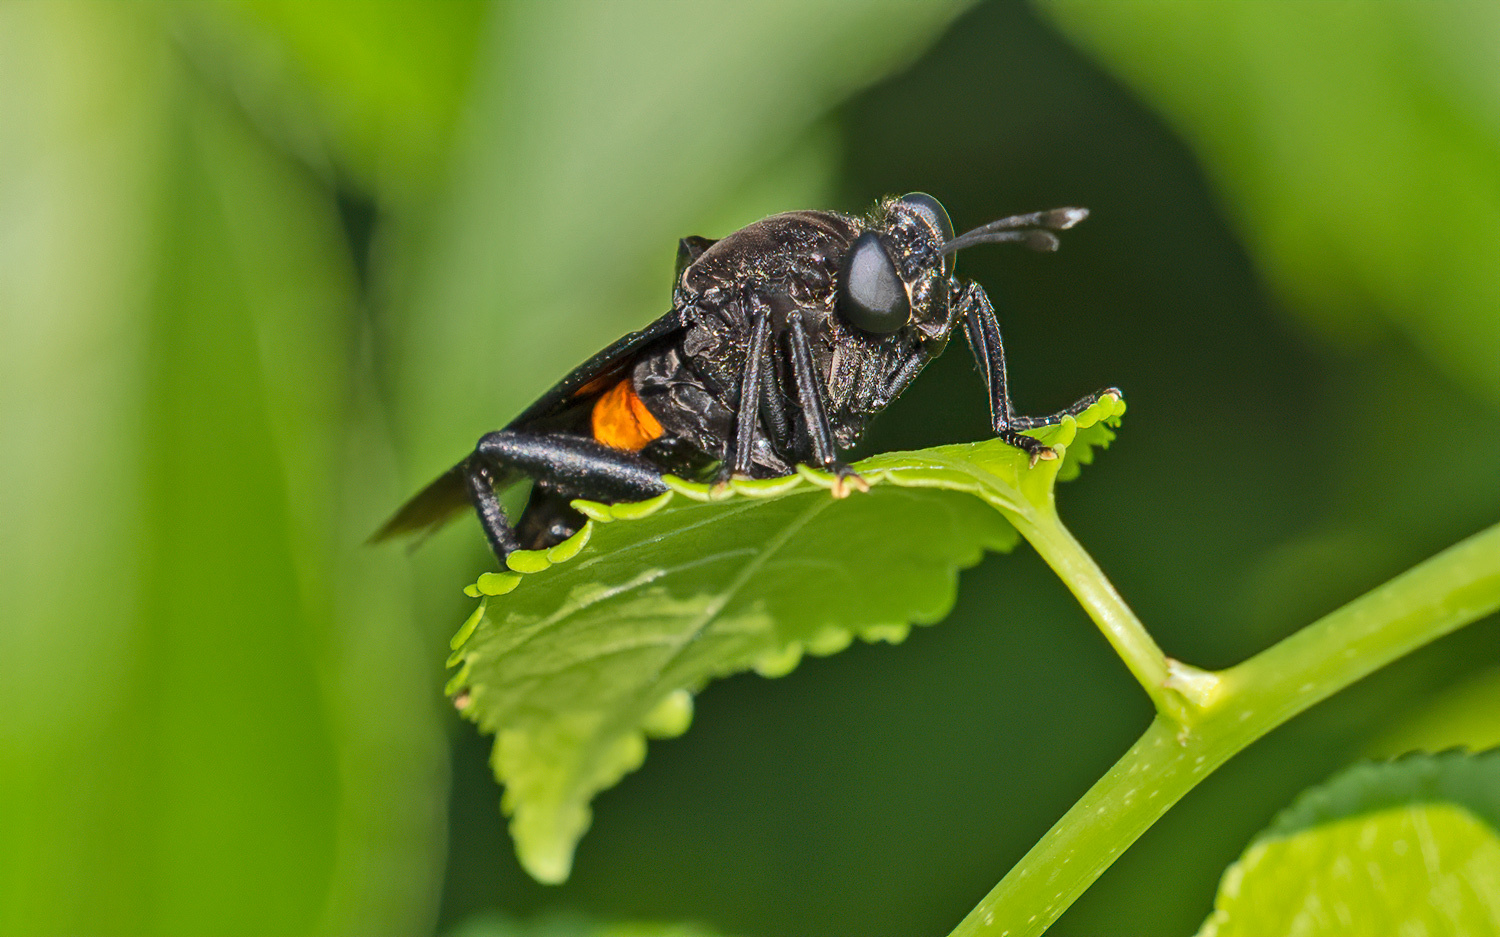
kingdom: Animalia
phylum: Arthropoda
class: Insecta
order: Diptera
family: Mydidae
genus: Mydas
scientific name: Mydas clavatus
